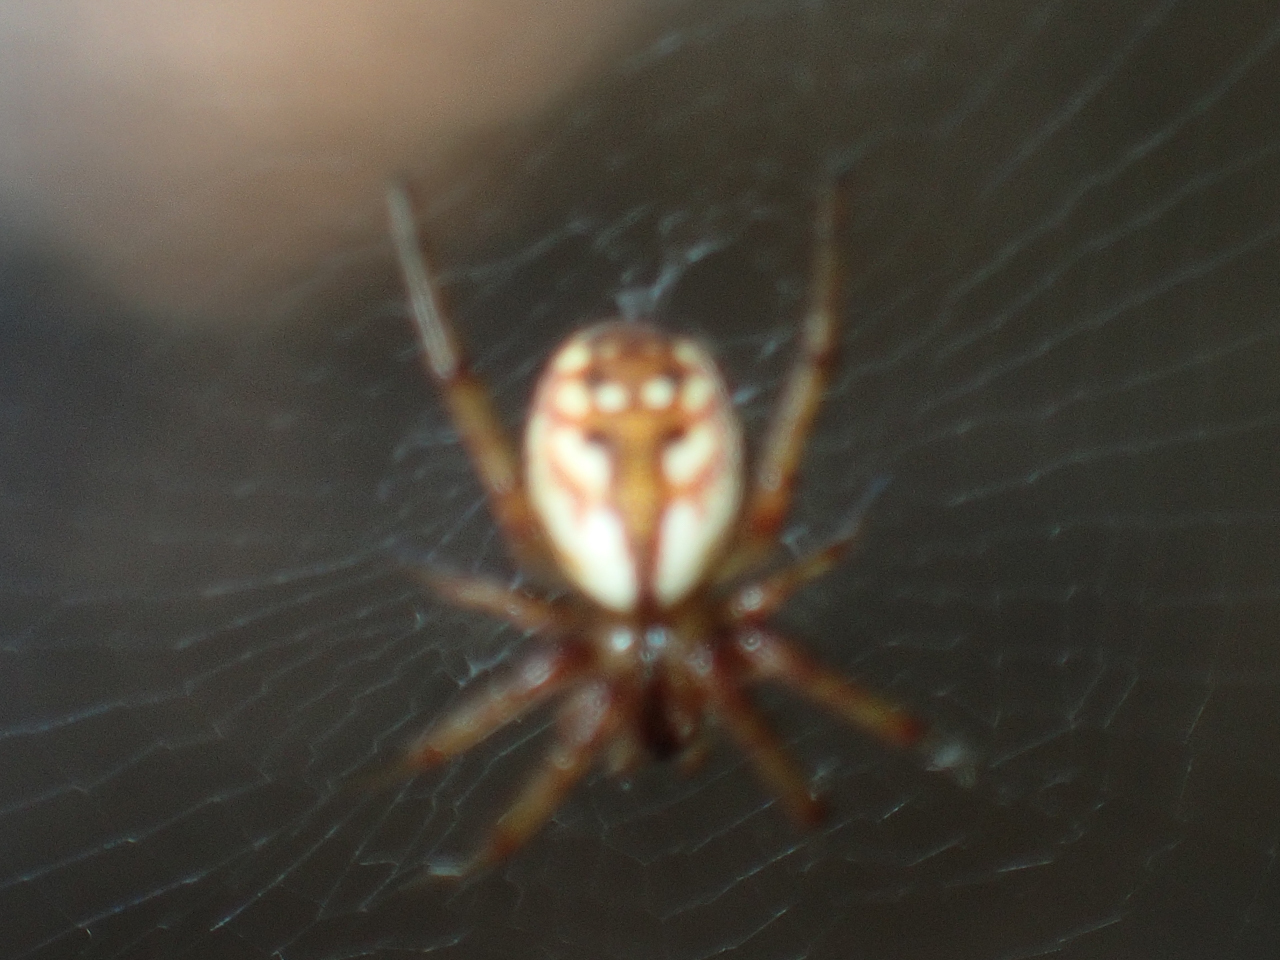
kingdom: Animalia
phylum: Arthropoda
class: Arachnida
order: Araneae
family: Araneidae
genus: Mangora
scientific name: Mangora placida
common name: Tuft-legged orbweaver
